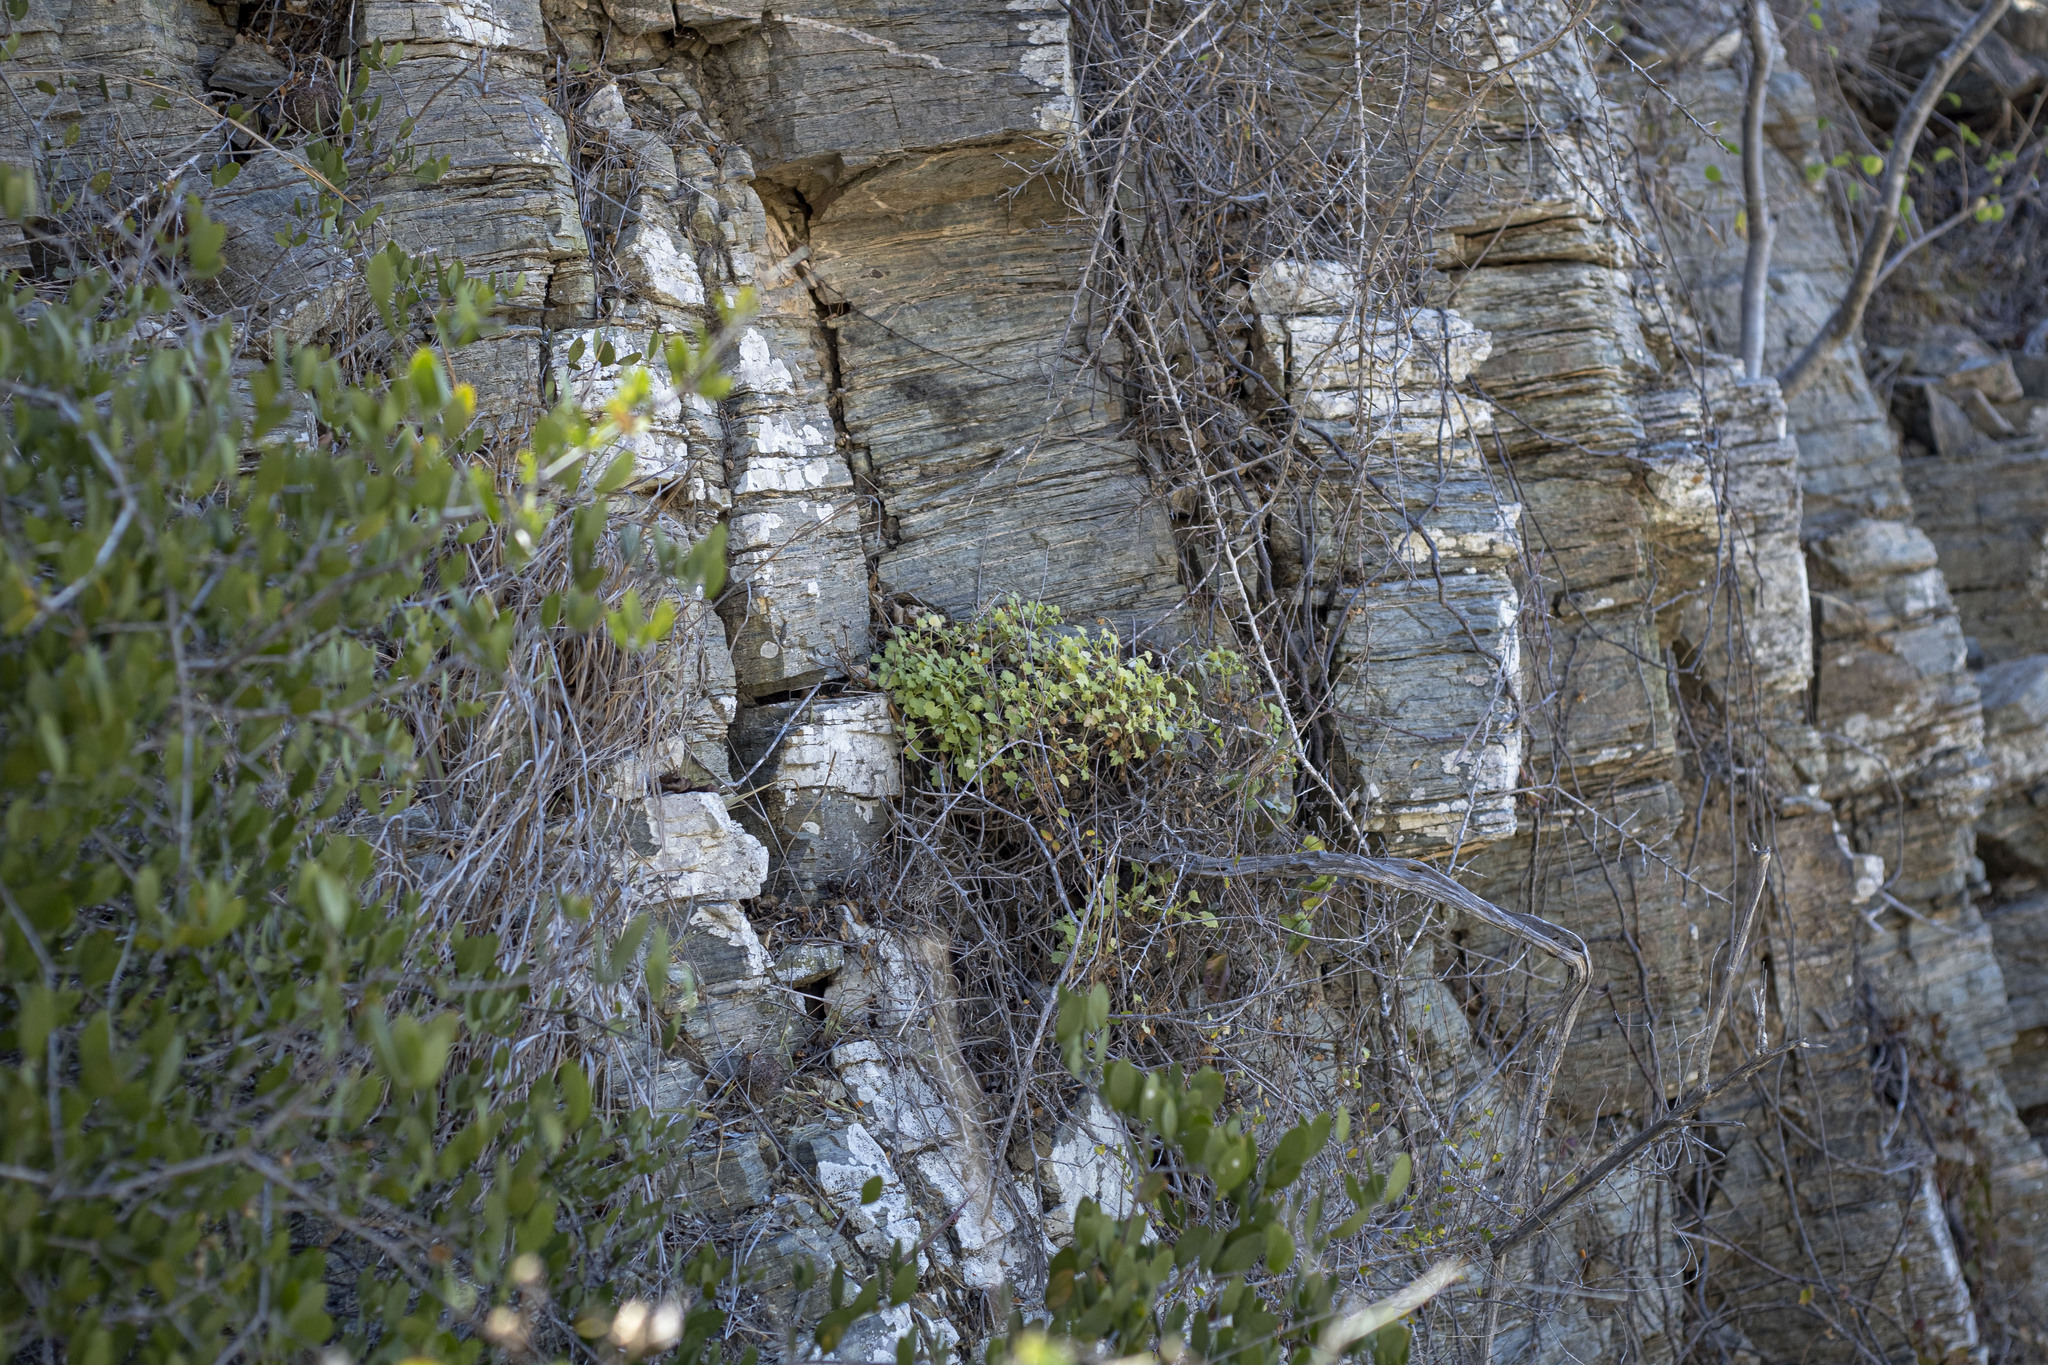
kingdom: Plantae
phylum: Tracheophyta
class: Magnoliopsida
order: Asterales
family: Asteraceae
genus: Hofmeisteria
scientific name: Hofmeisteria fasciculata
